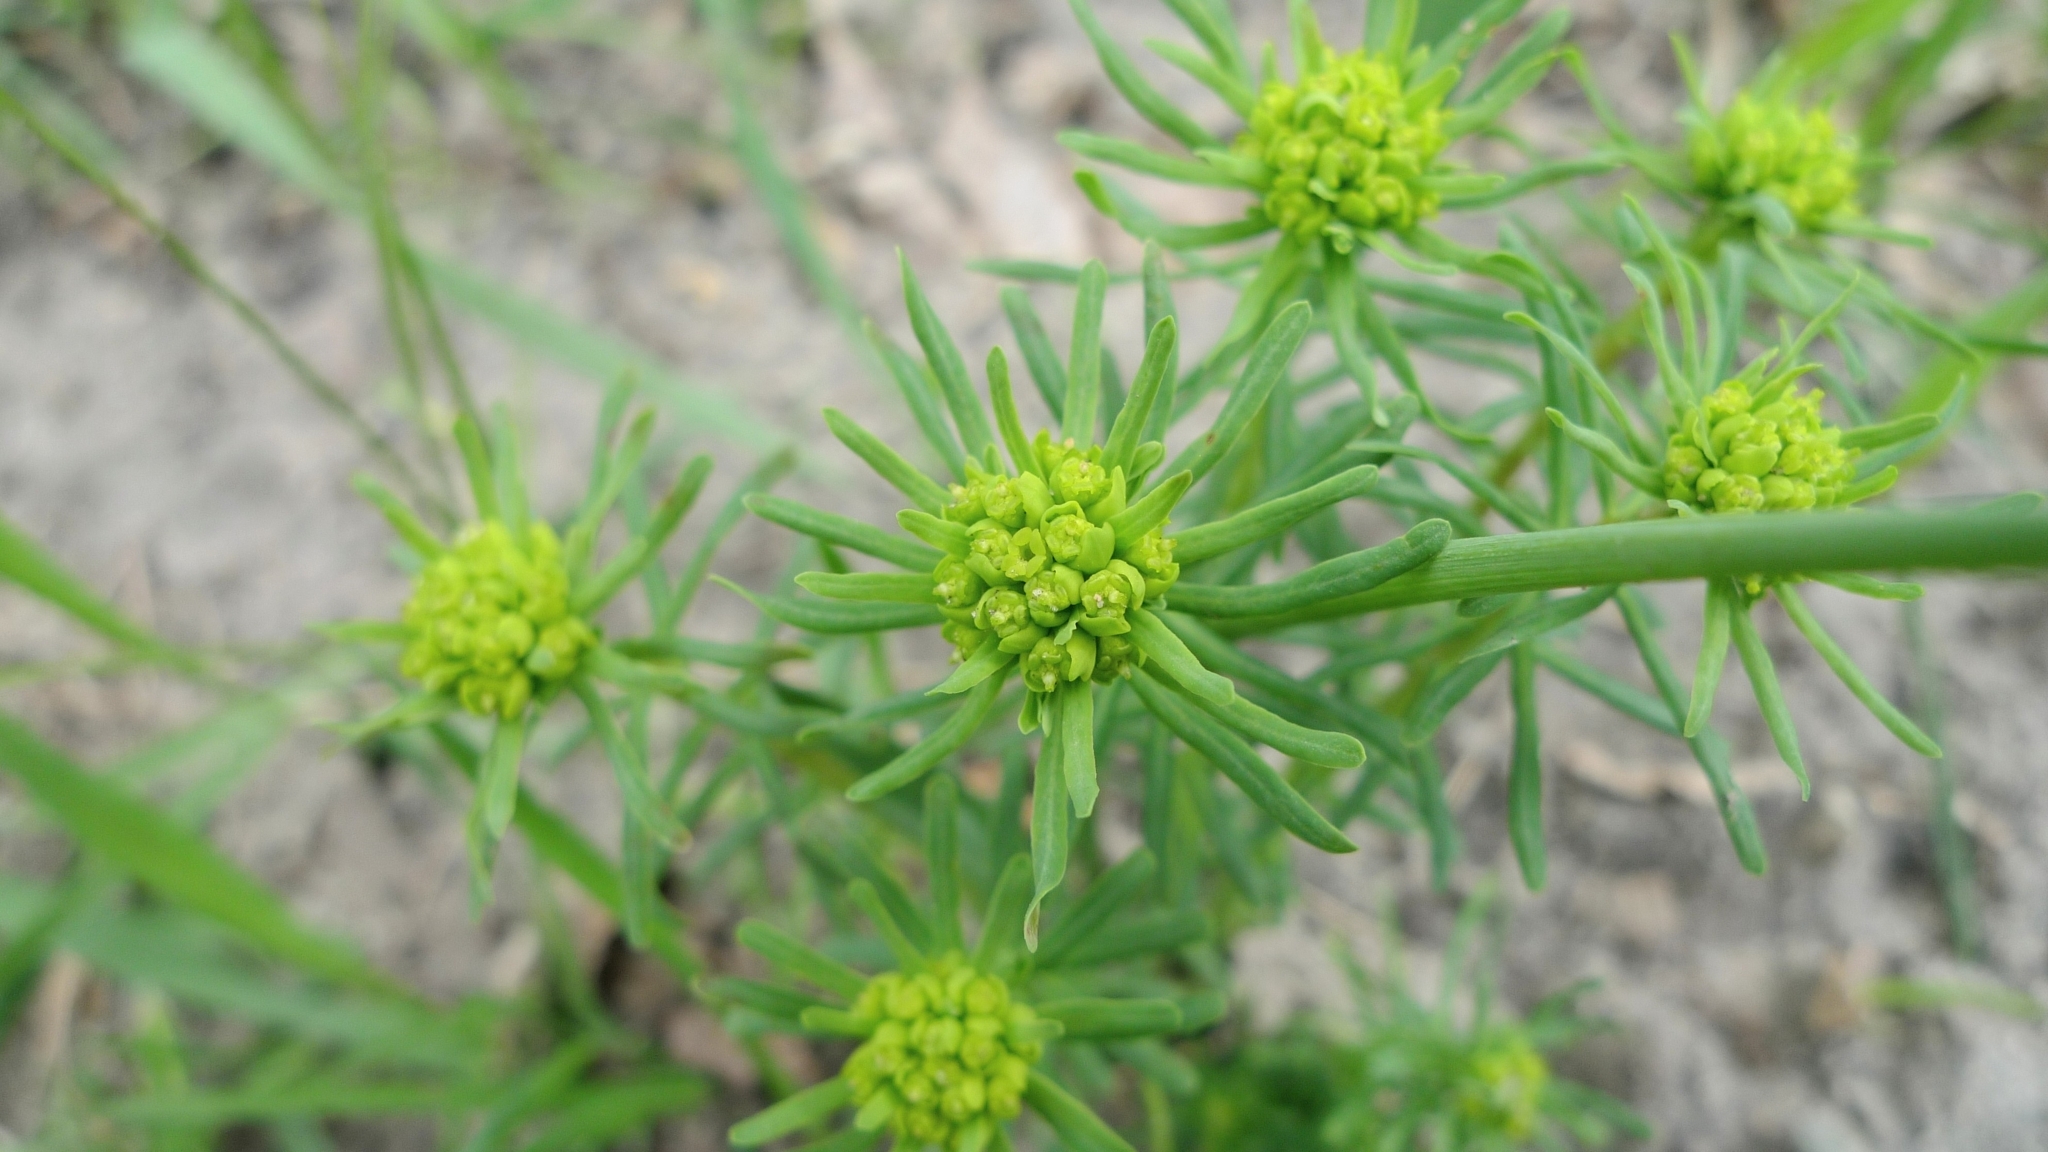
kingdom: Plantae
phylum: Tracheophyta
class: Magnoliopsida
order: Malpighiales
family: Euphorbiaceae
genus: Euphorbia
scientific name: Euphorbia cyparissias
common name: Cypress spurge
